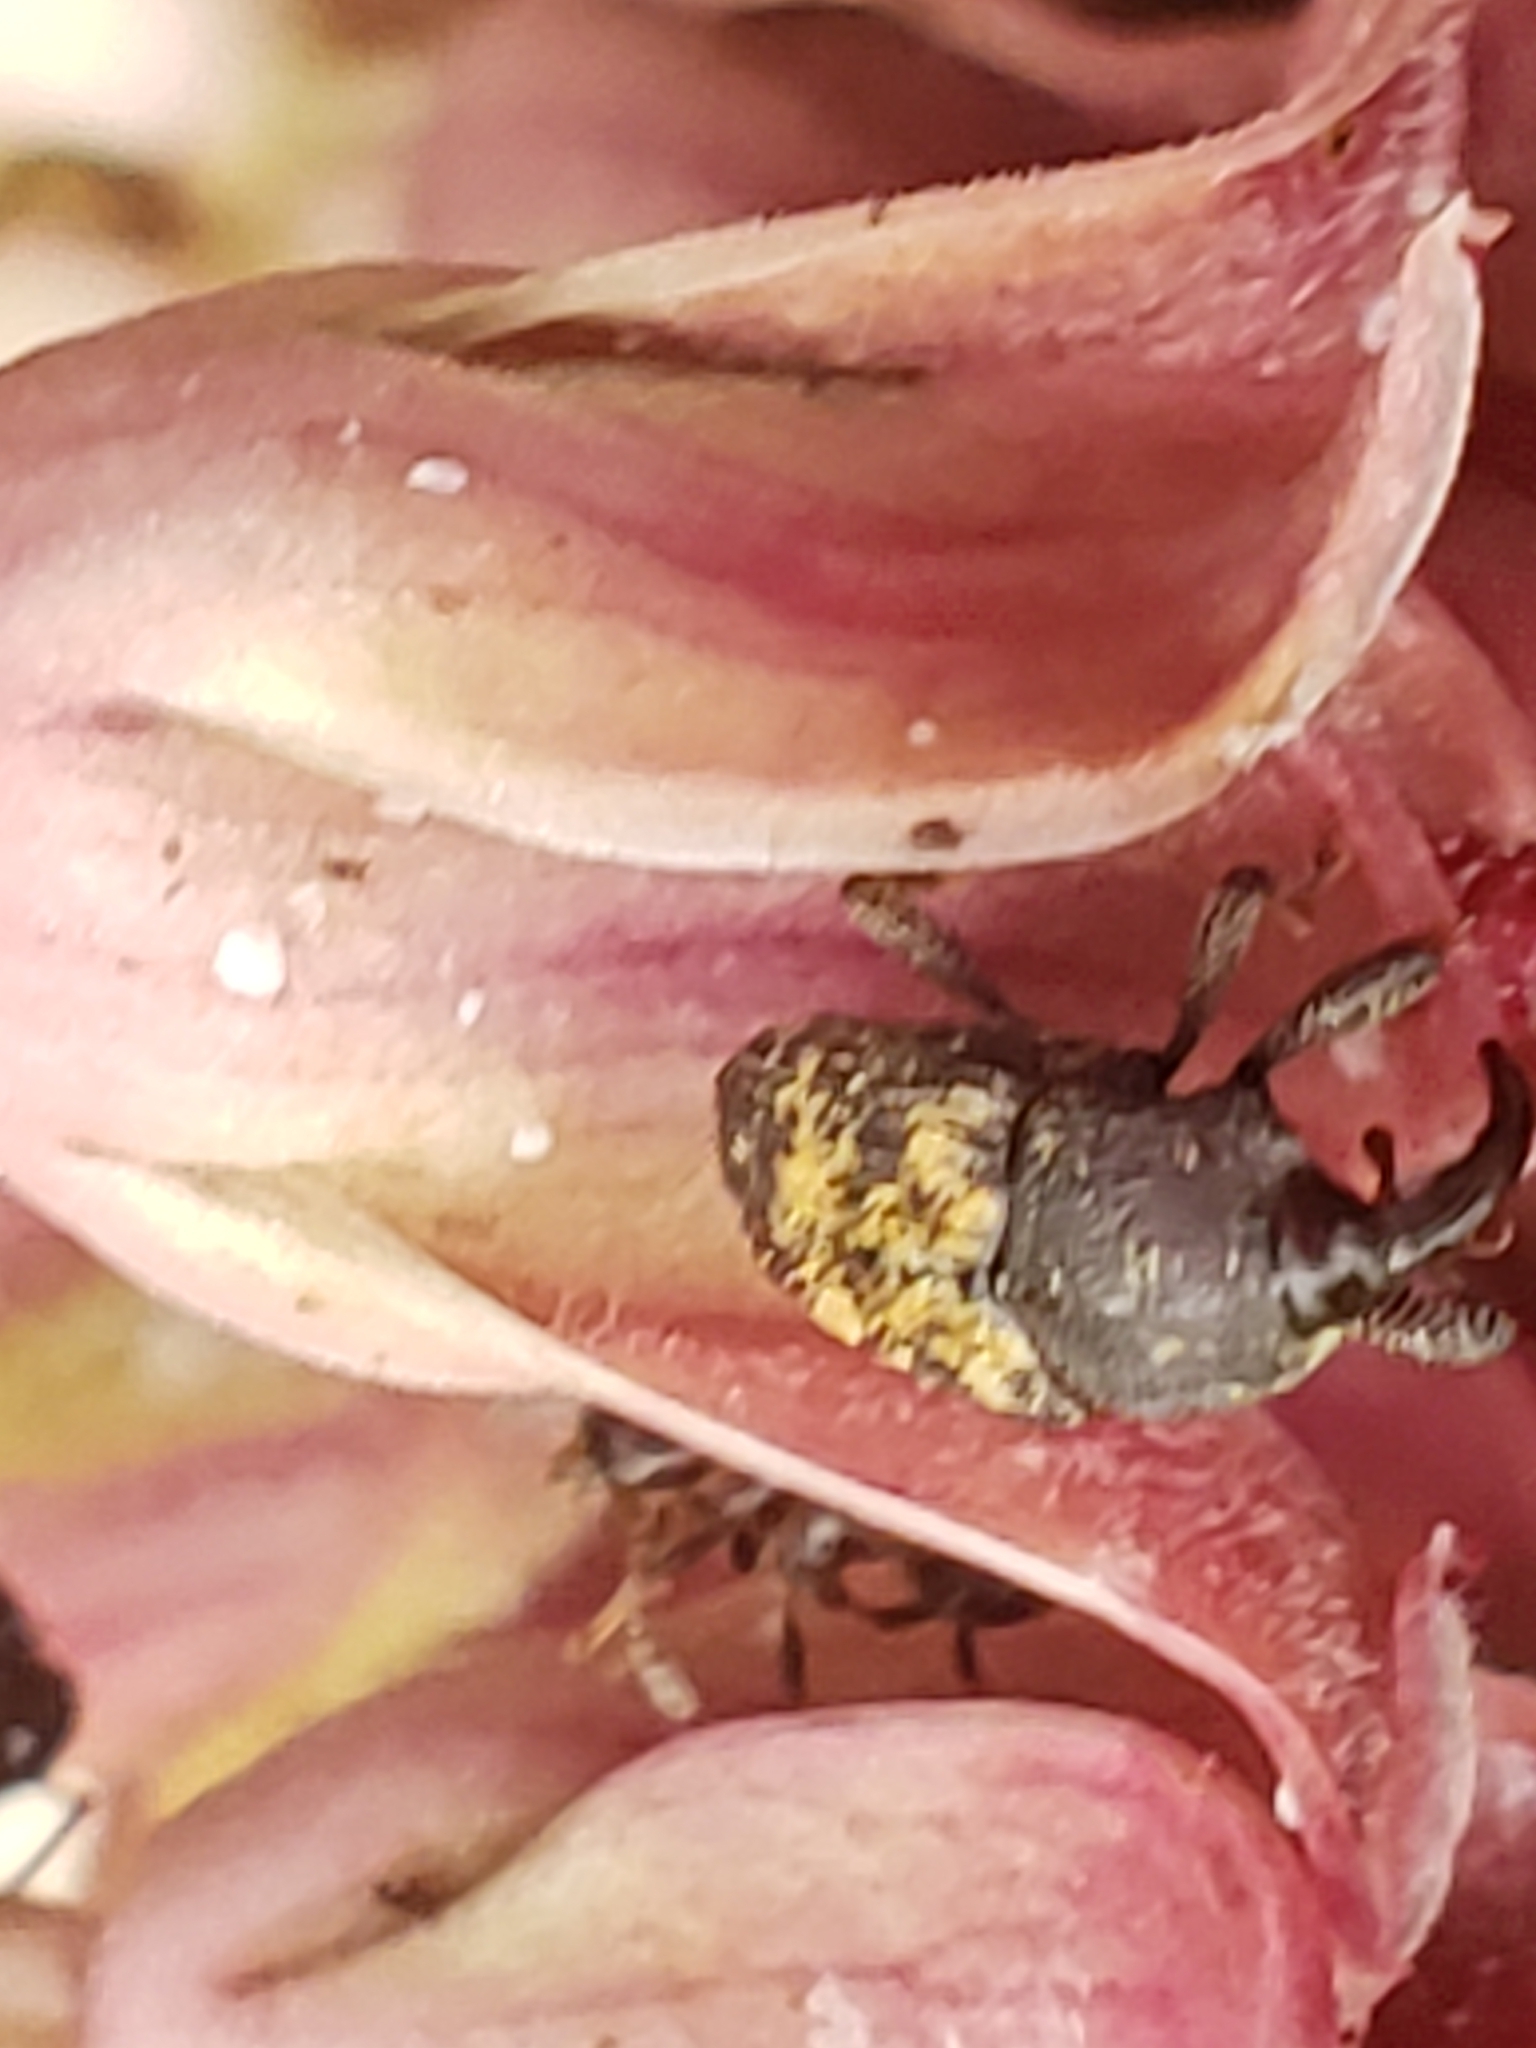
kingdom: Animalia
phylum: Arthropoda
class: Insecta
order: Coleoptera
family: Curculionidae
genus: Glyptobaris
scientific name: Glyptobaris lecontei
